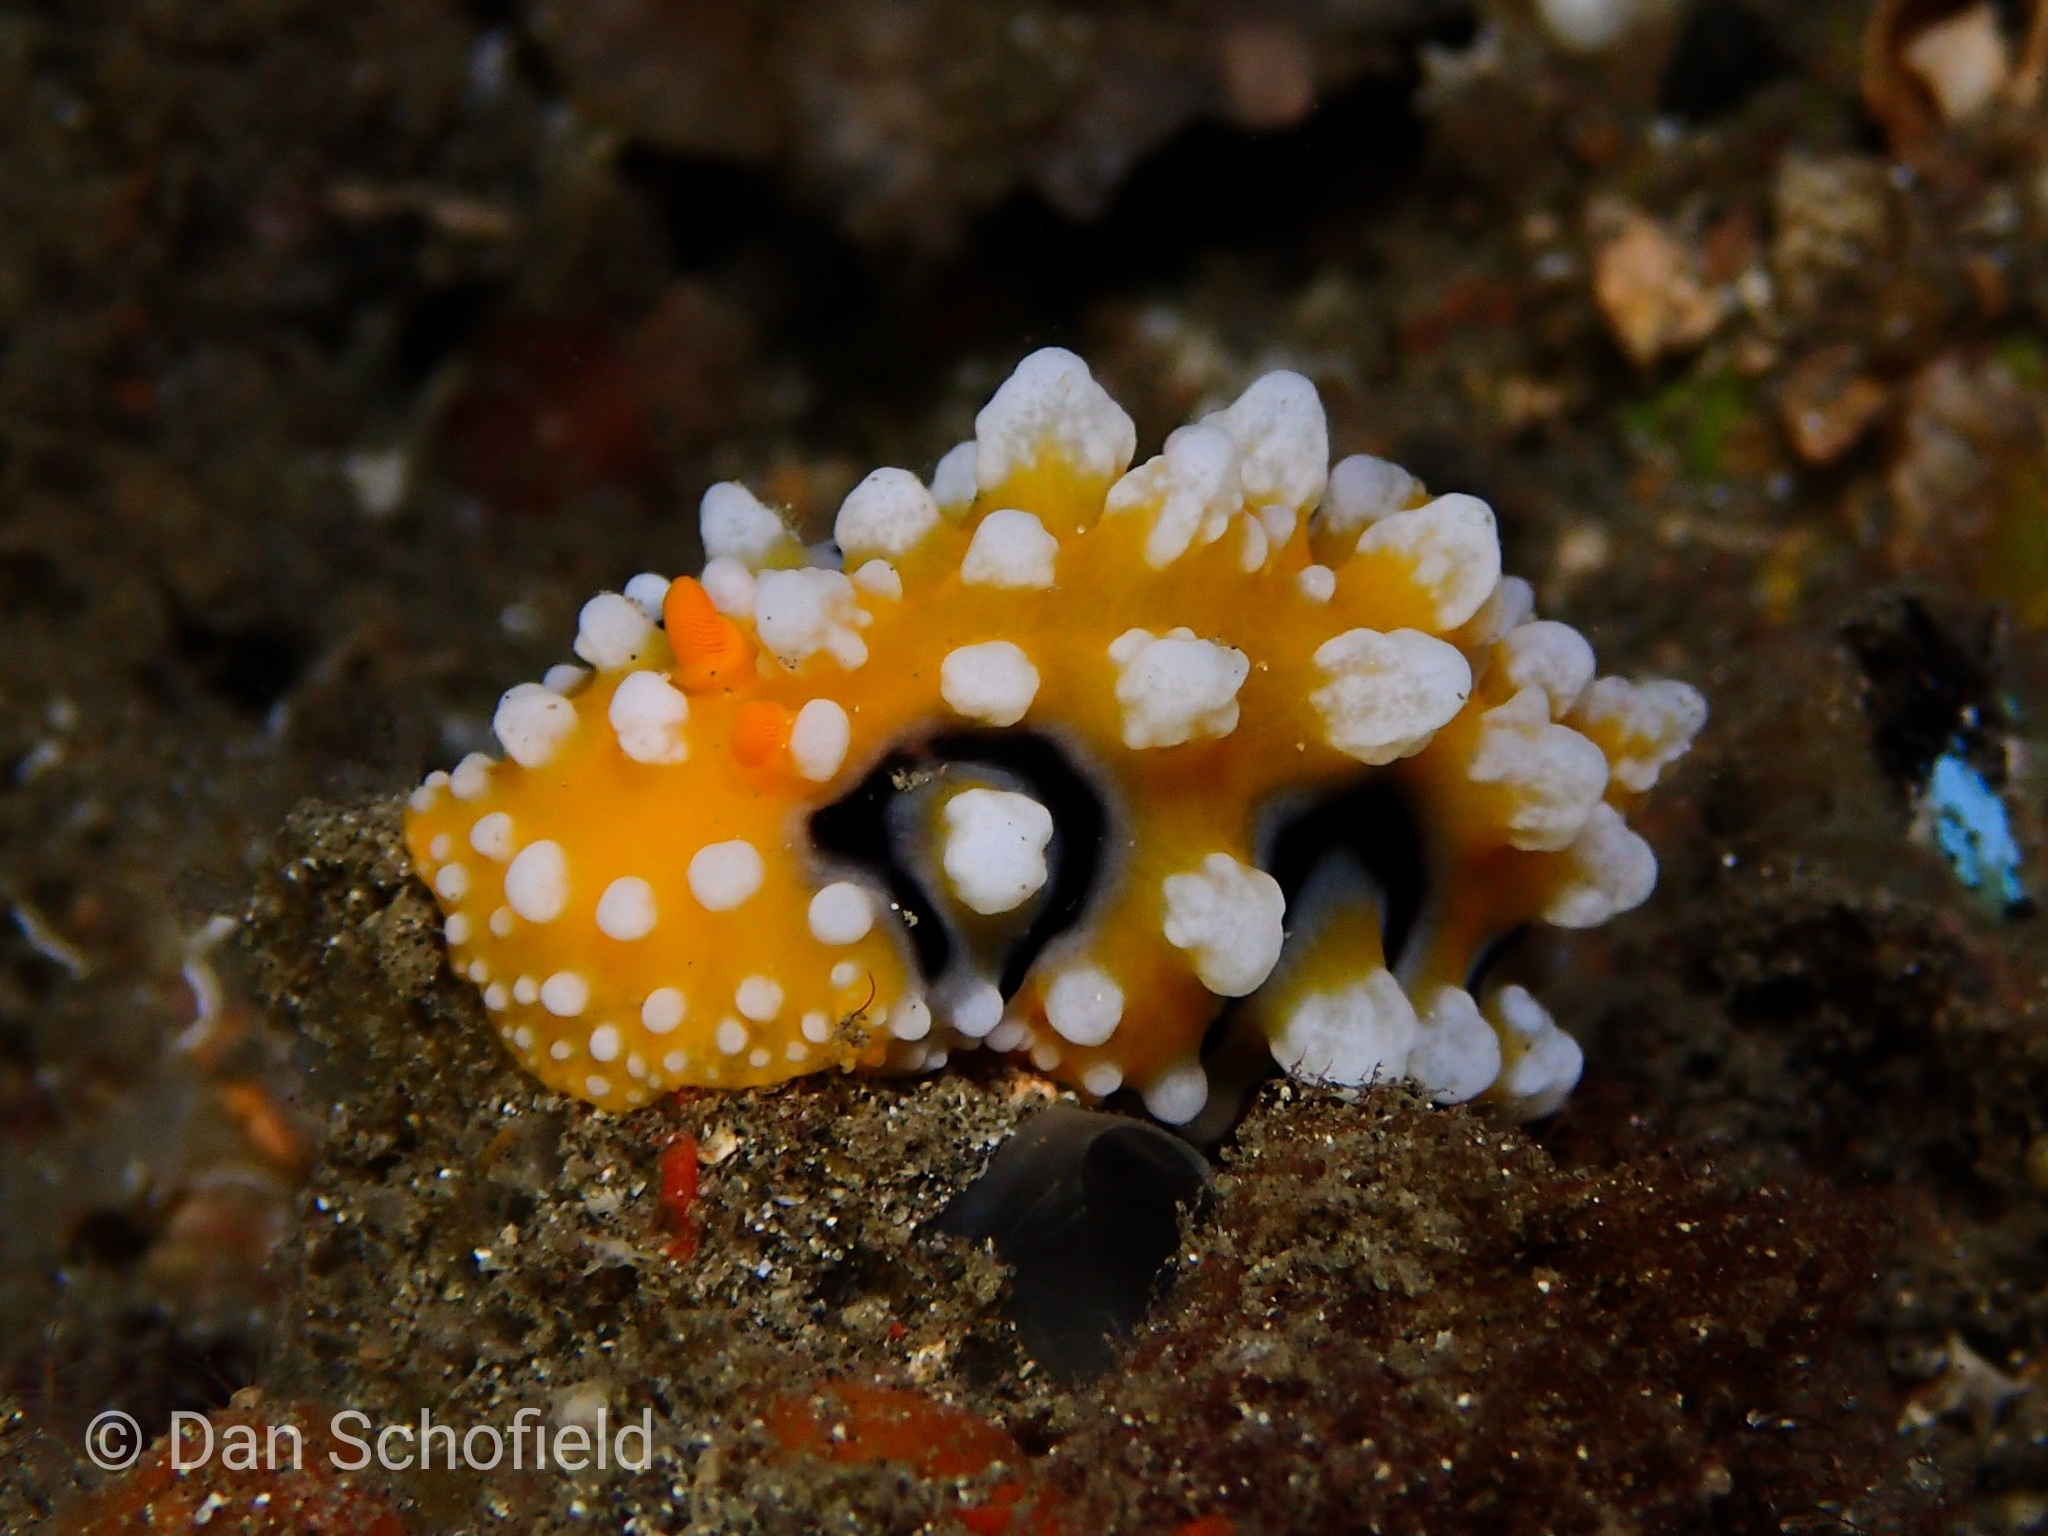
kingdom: Animalia
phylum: Mollusca
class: Gastropoda
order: Nudibranchia
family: Phyllidiidae
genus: Phyllidia
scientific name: Phyllidia ocellata
